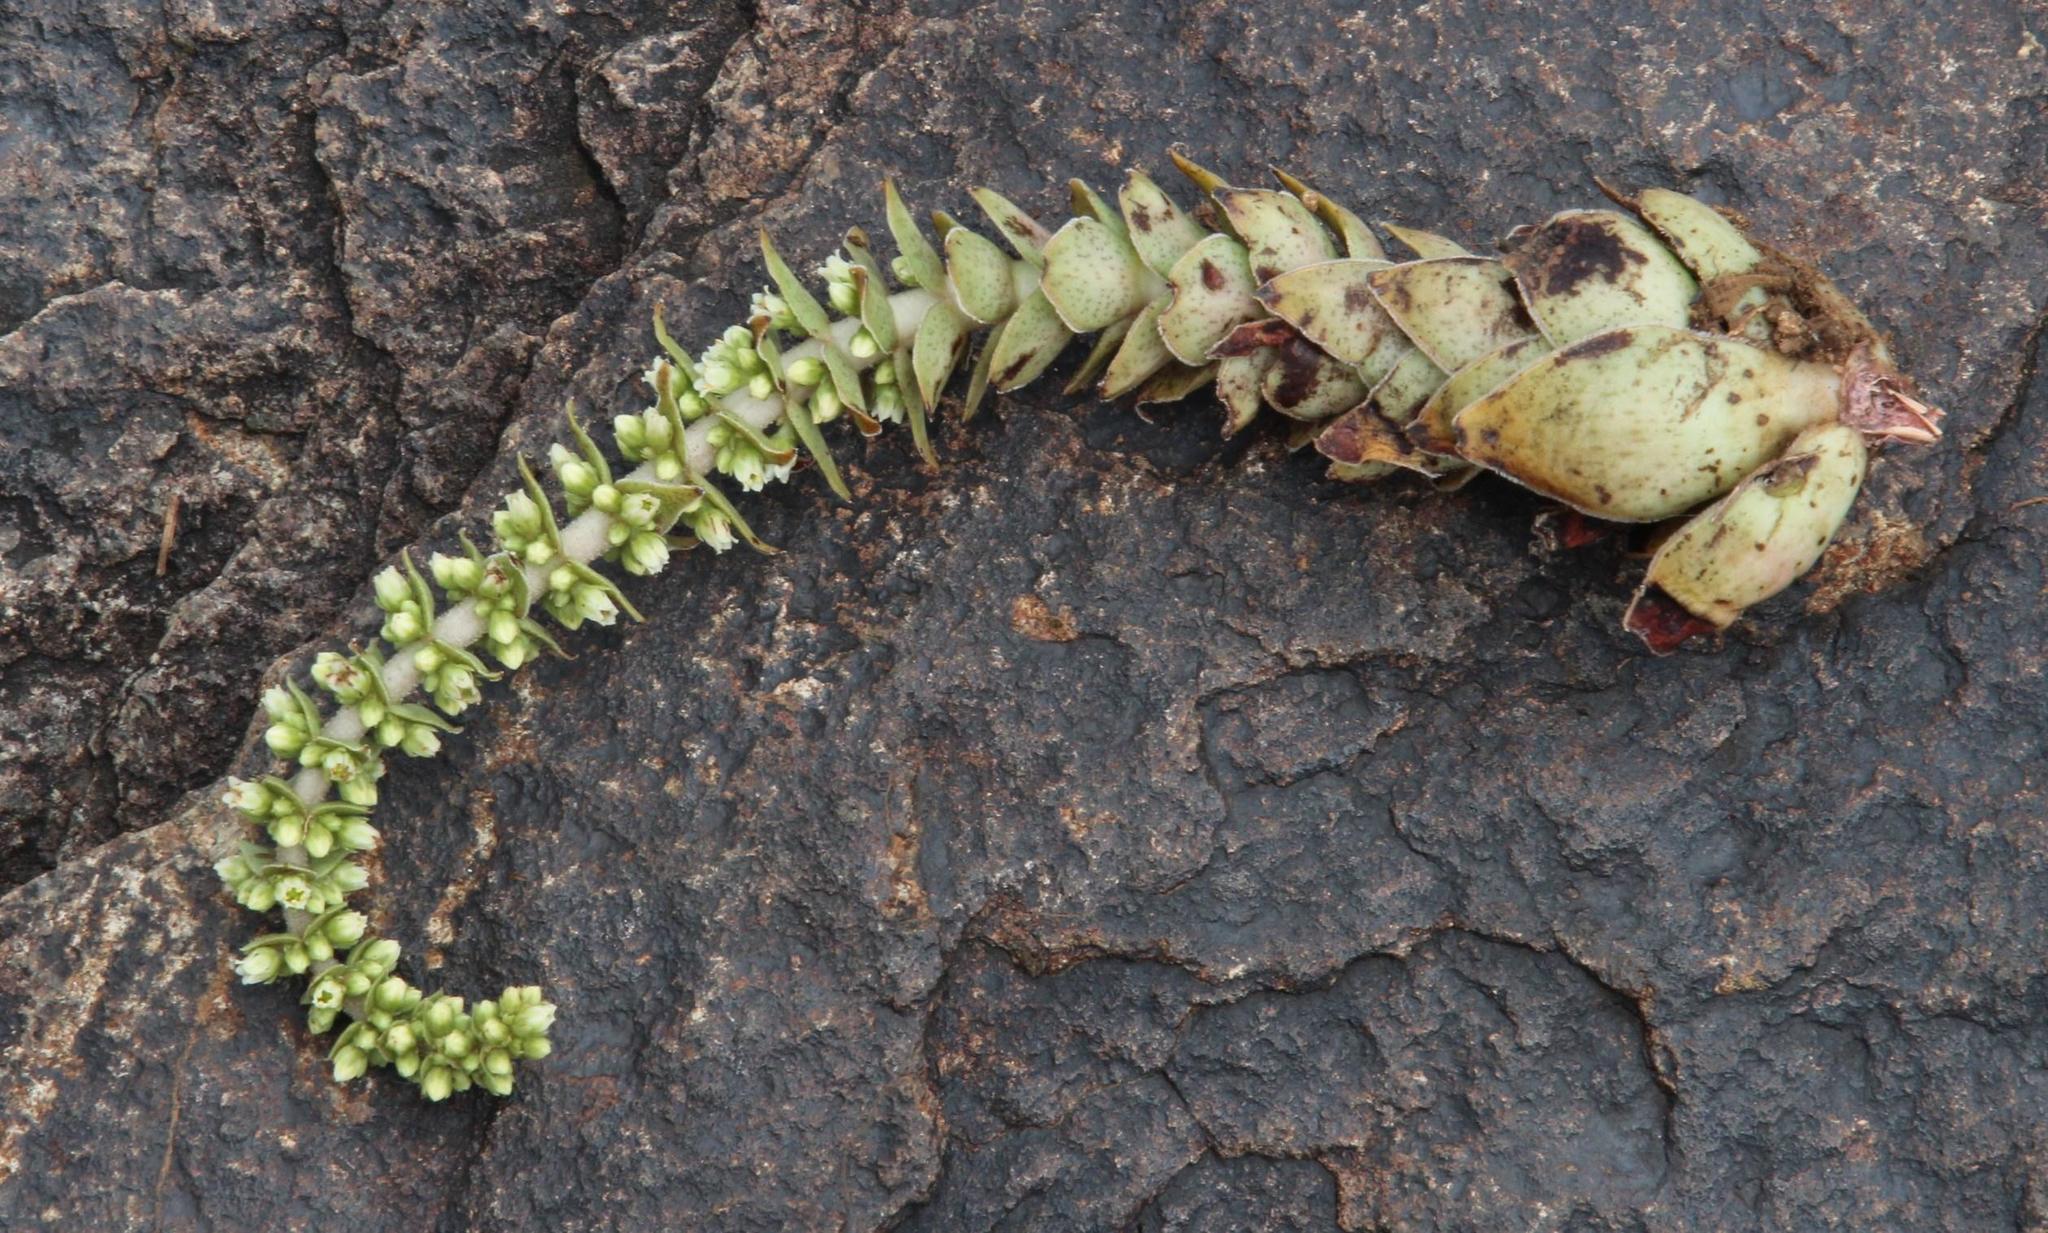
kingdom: Plantae
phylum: Tracheophyta
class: Magnoliopsida
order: Saxifragales
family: Crassulaceae
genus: Crassula
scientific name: Crassula obovata
